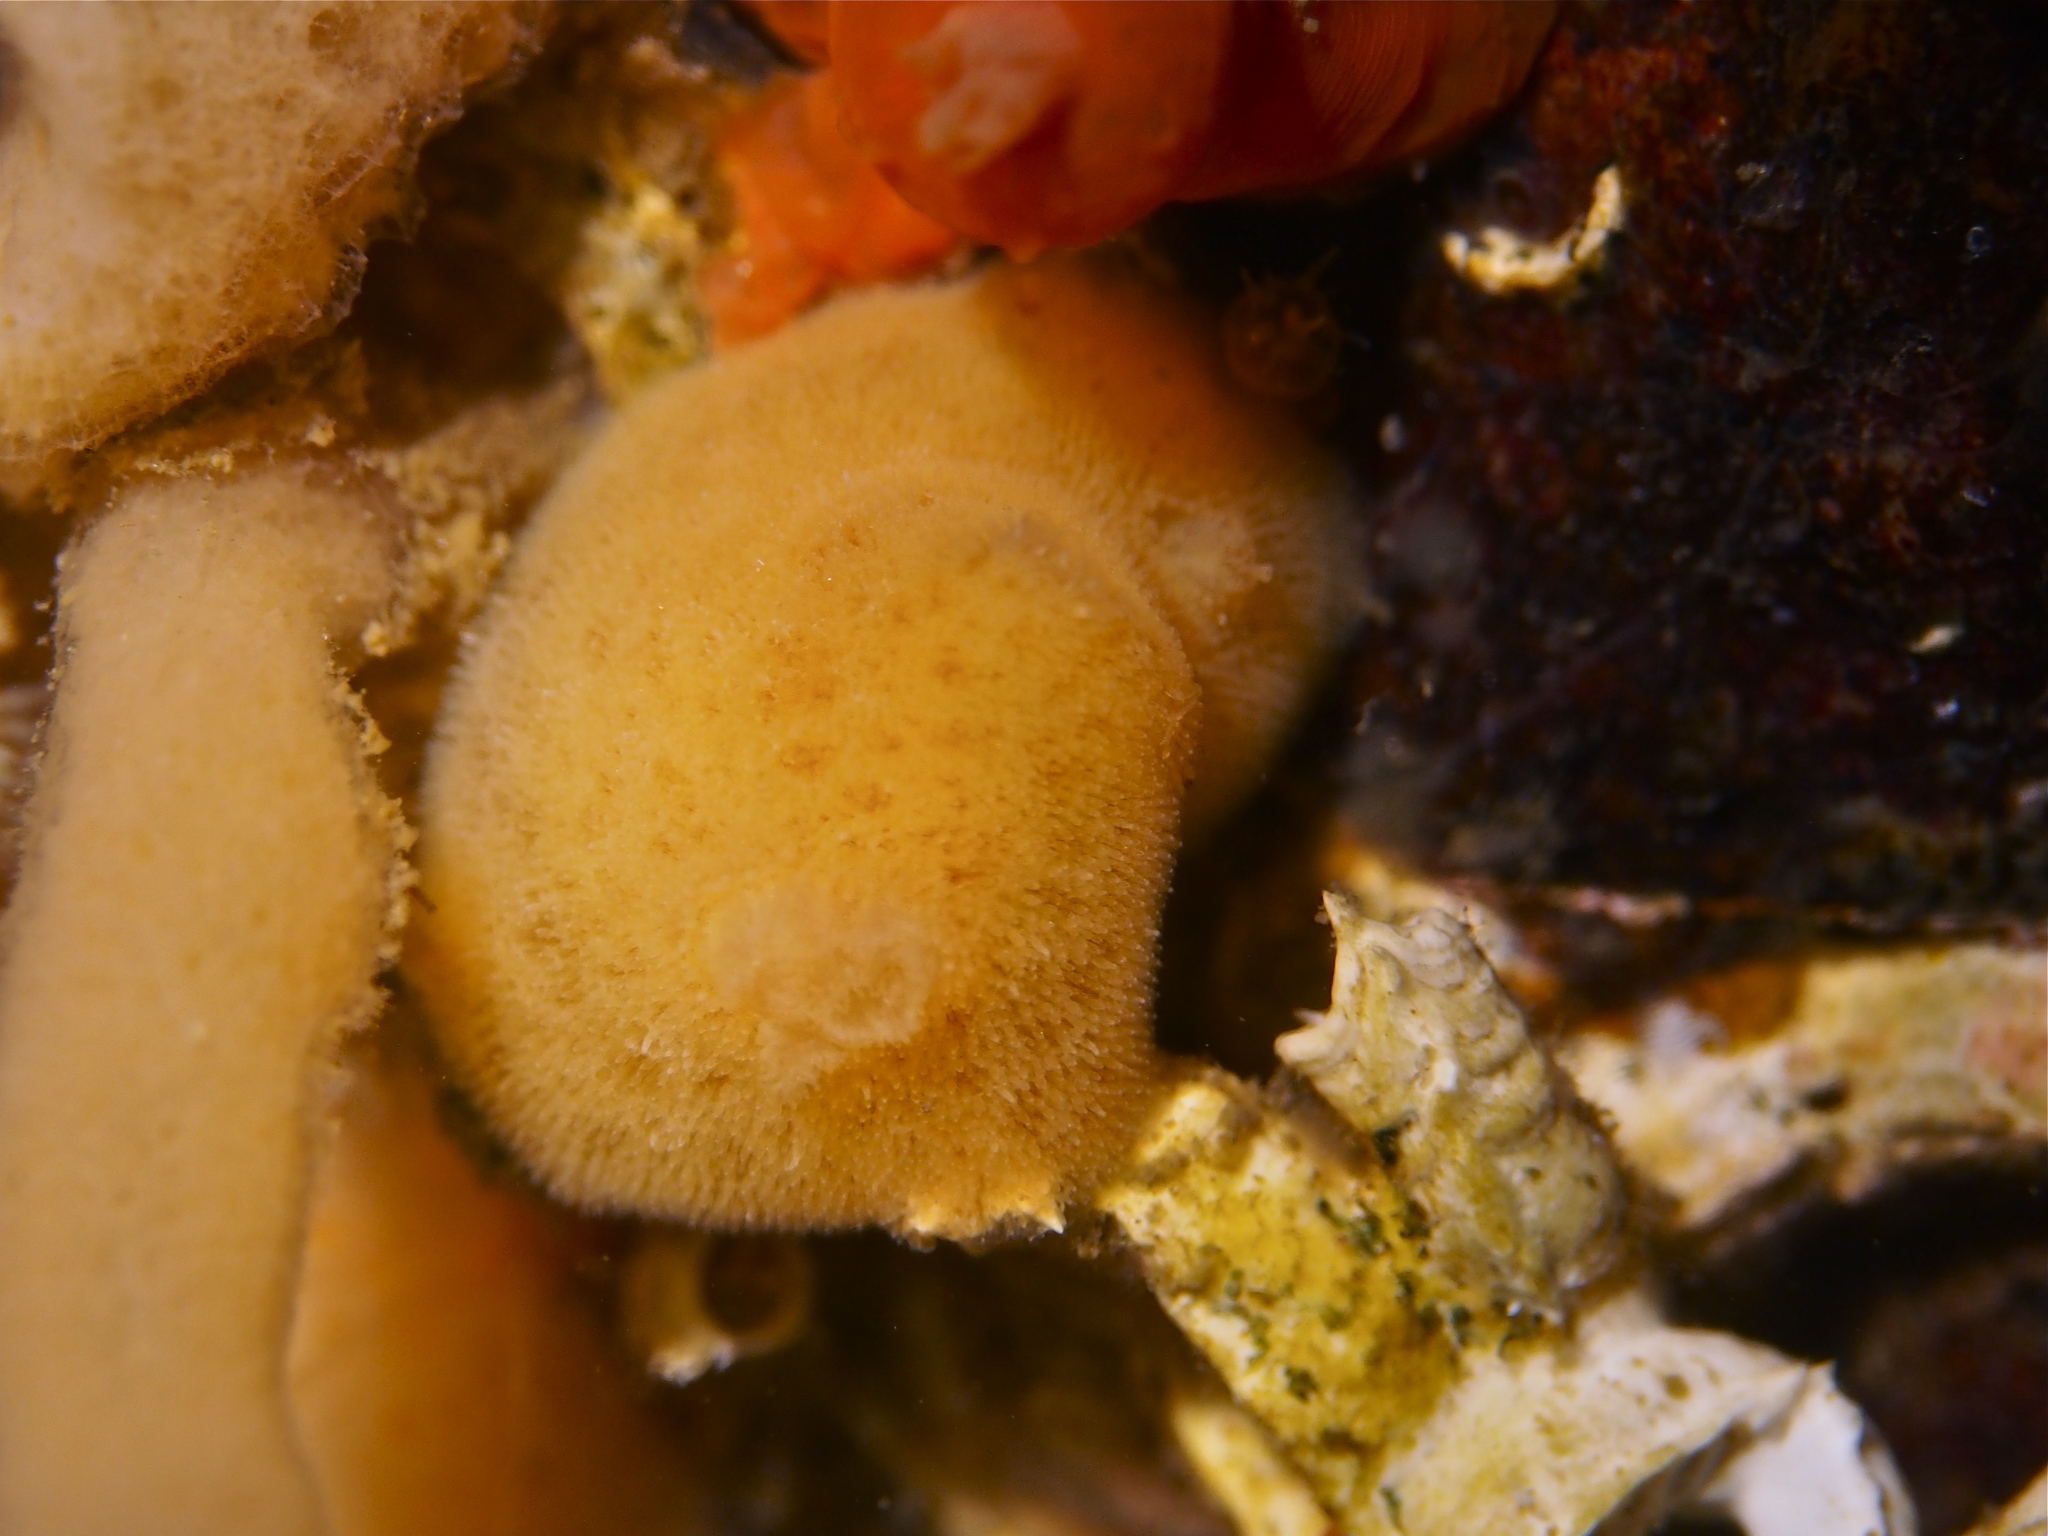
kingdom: Animalia
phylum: Mollusca
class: Gastropoda
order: Nudibranchia
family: Discodorididae
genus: Jorunna
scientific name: Jorunna tomentosa
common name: Grey sea slug
